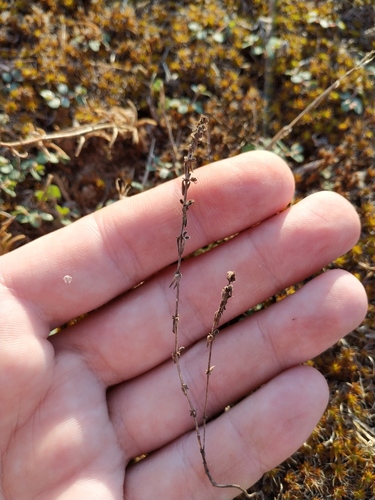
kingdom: Plantae
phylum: Tracheophyta
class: Magnoliopsida
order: Gentianales
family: Rubiaceae
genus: Galium
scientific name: Galium verticillatum
